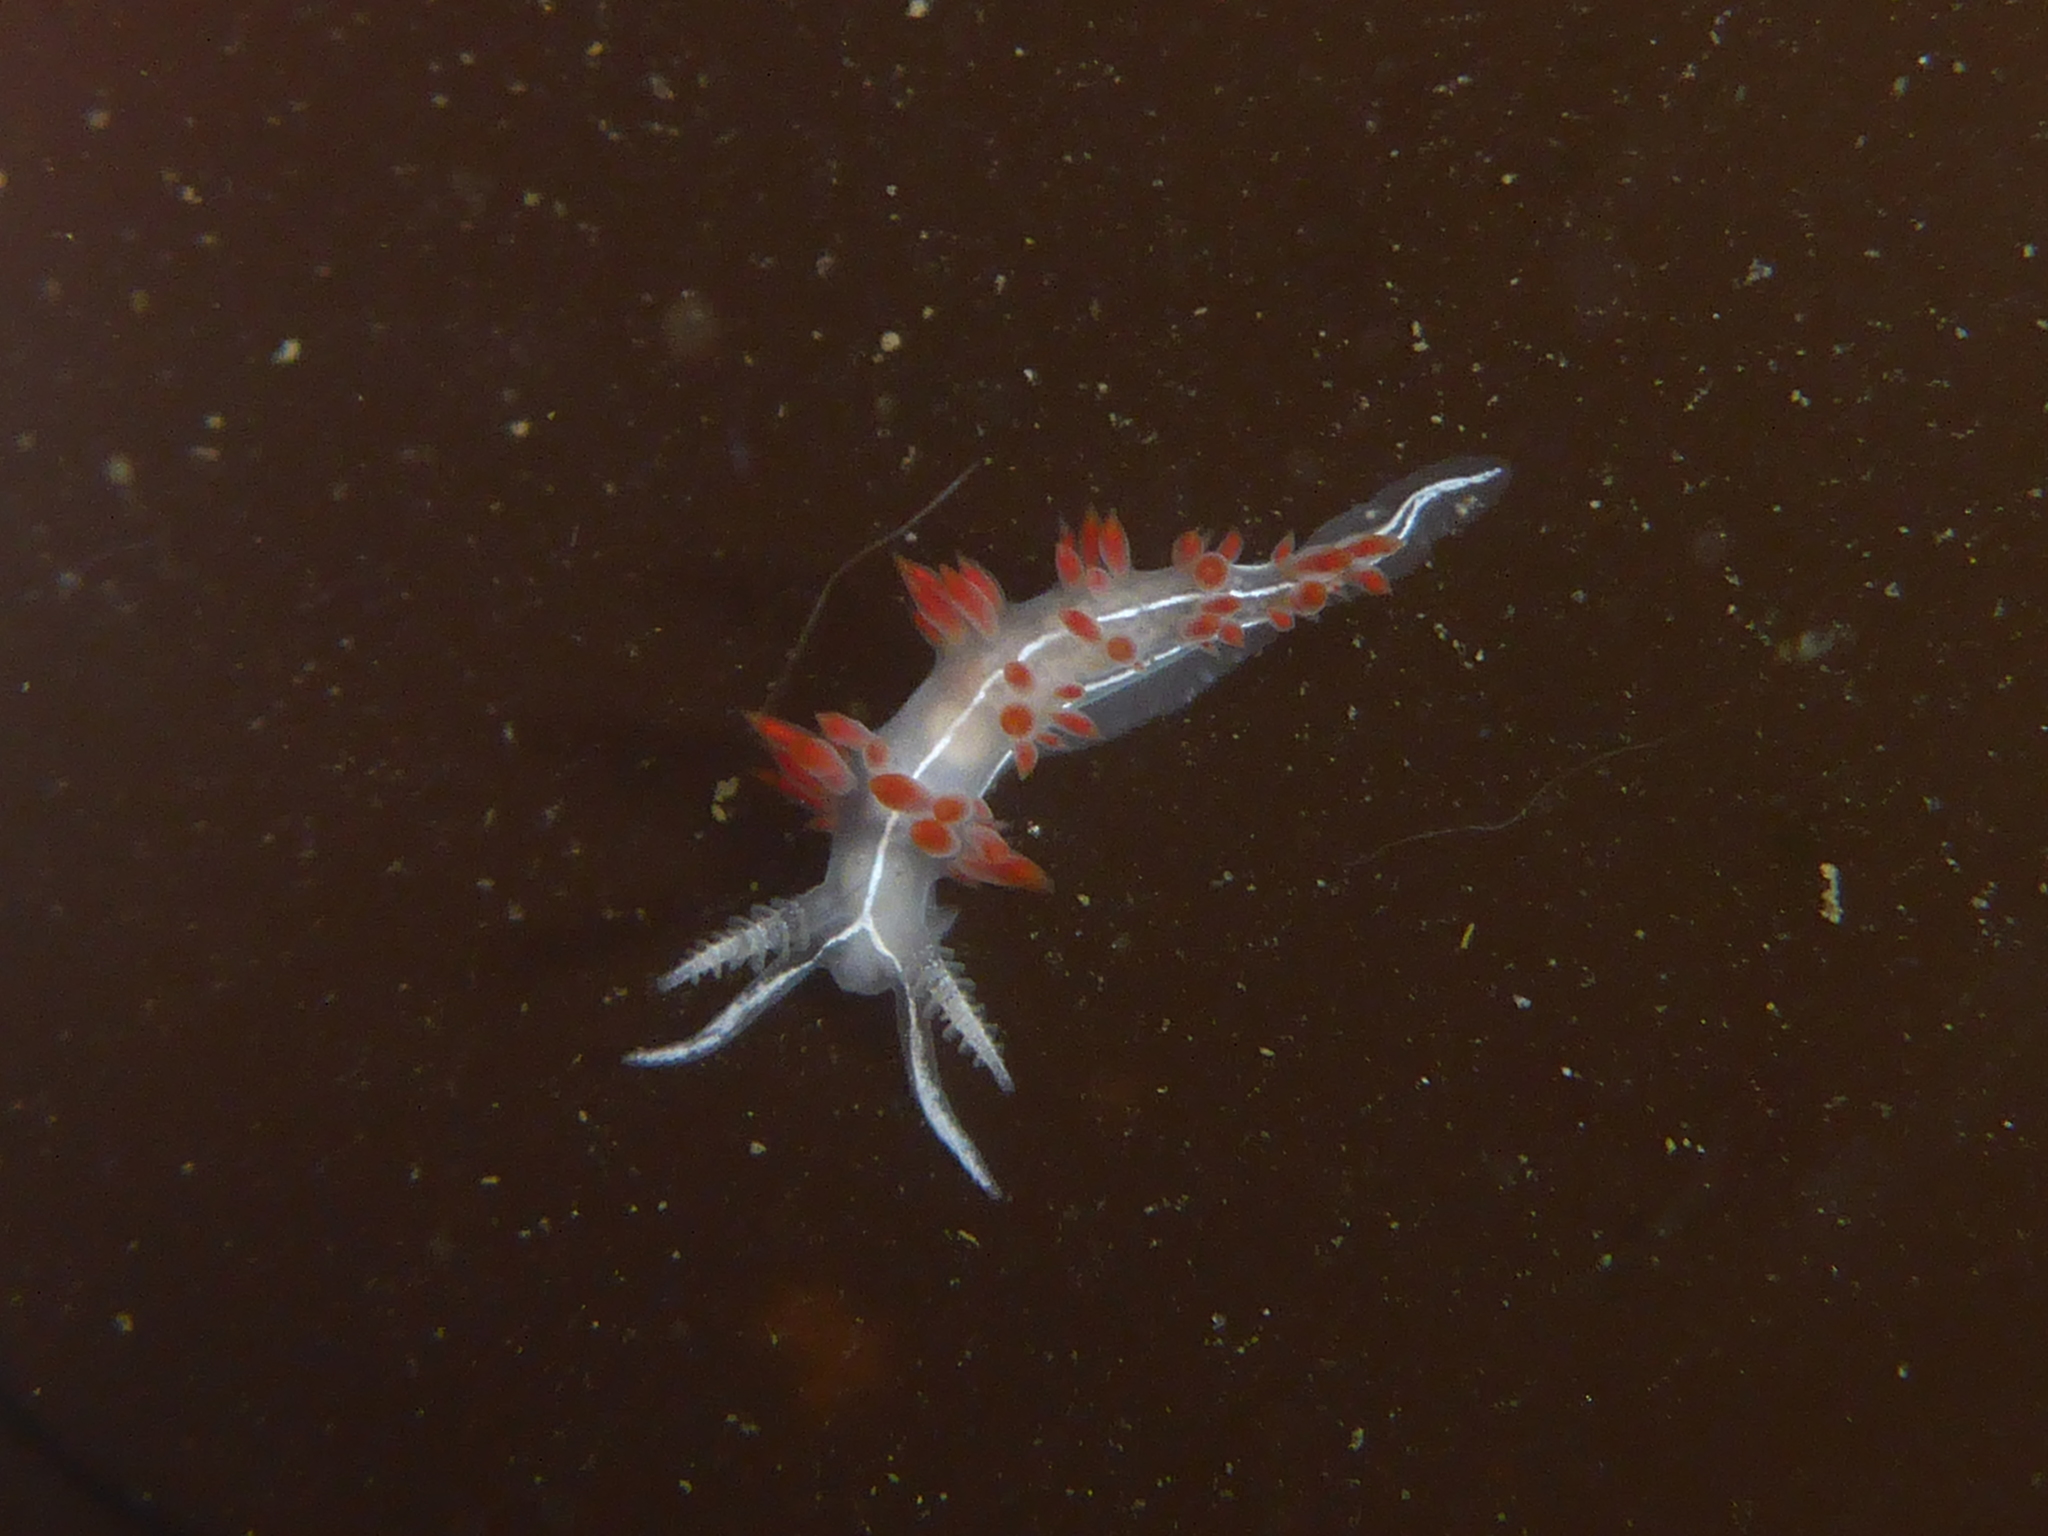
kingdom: Animalia
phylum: Mollusca
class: Gastropoda
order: Nudibranchia
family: Coryphellidae
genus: Coryphella
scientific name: Coryphella trilineata
